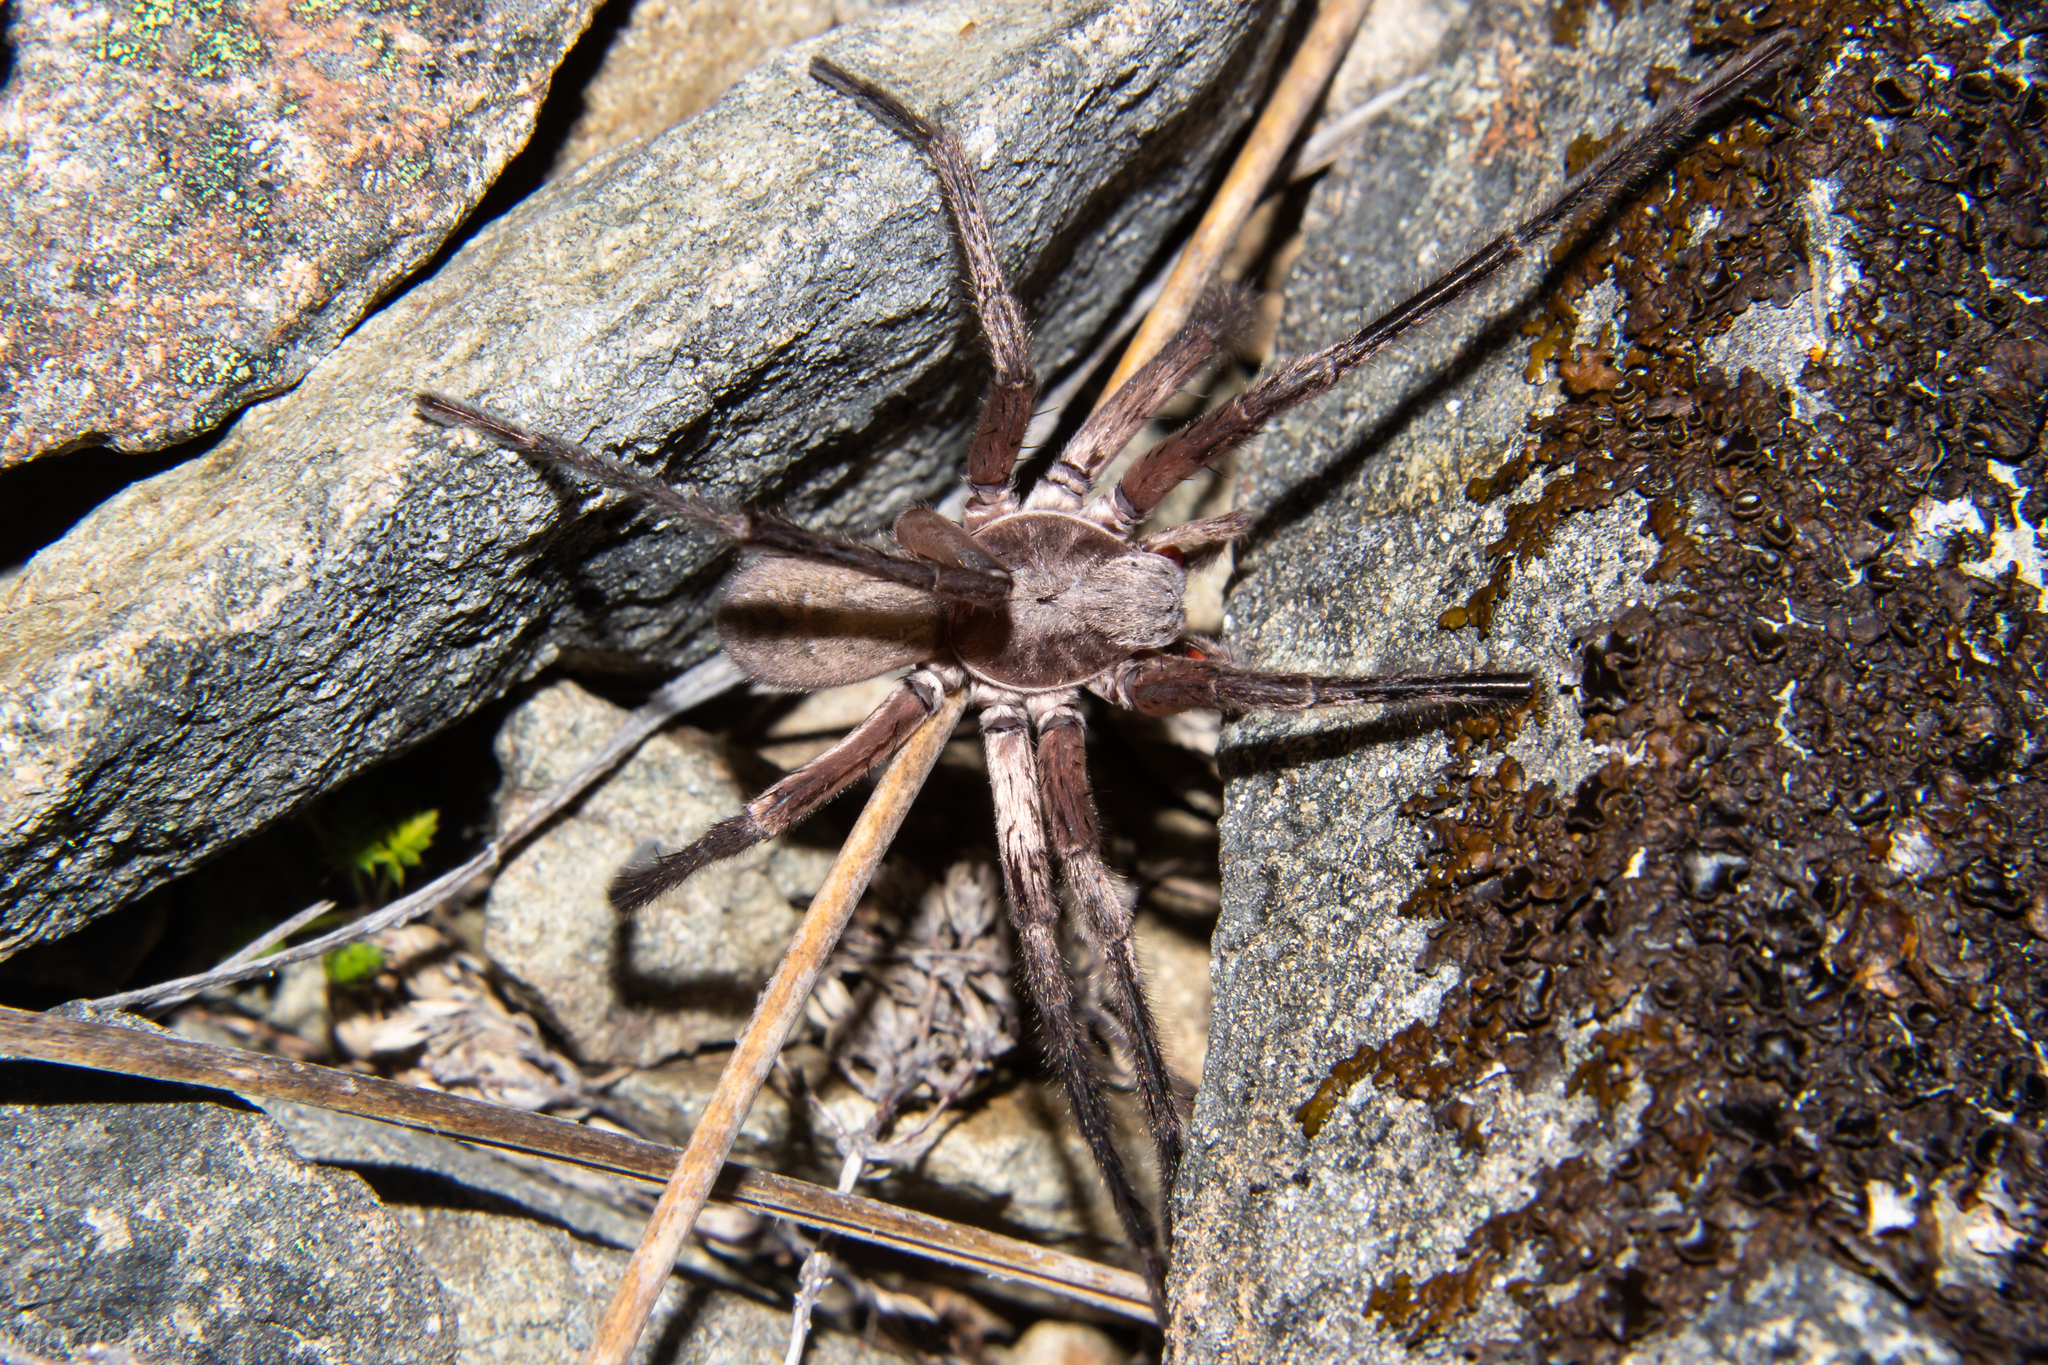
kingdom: Animalia
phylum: Arthropoda
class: Arachnida
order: Araneae
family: Zoropsidae
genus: Uliodon
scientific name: Uliodon
